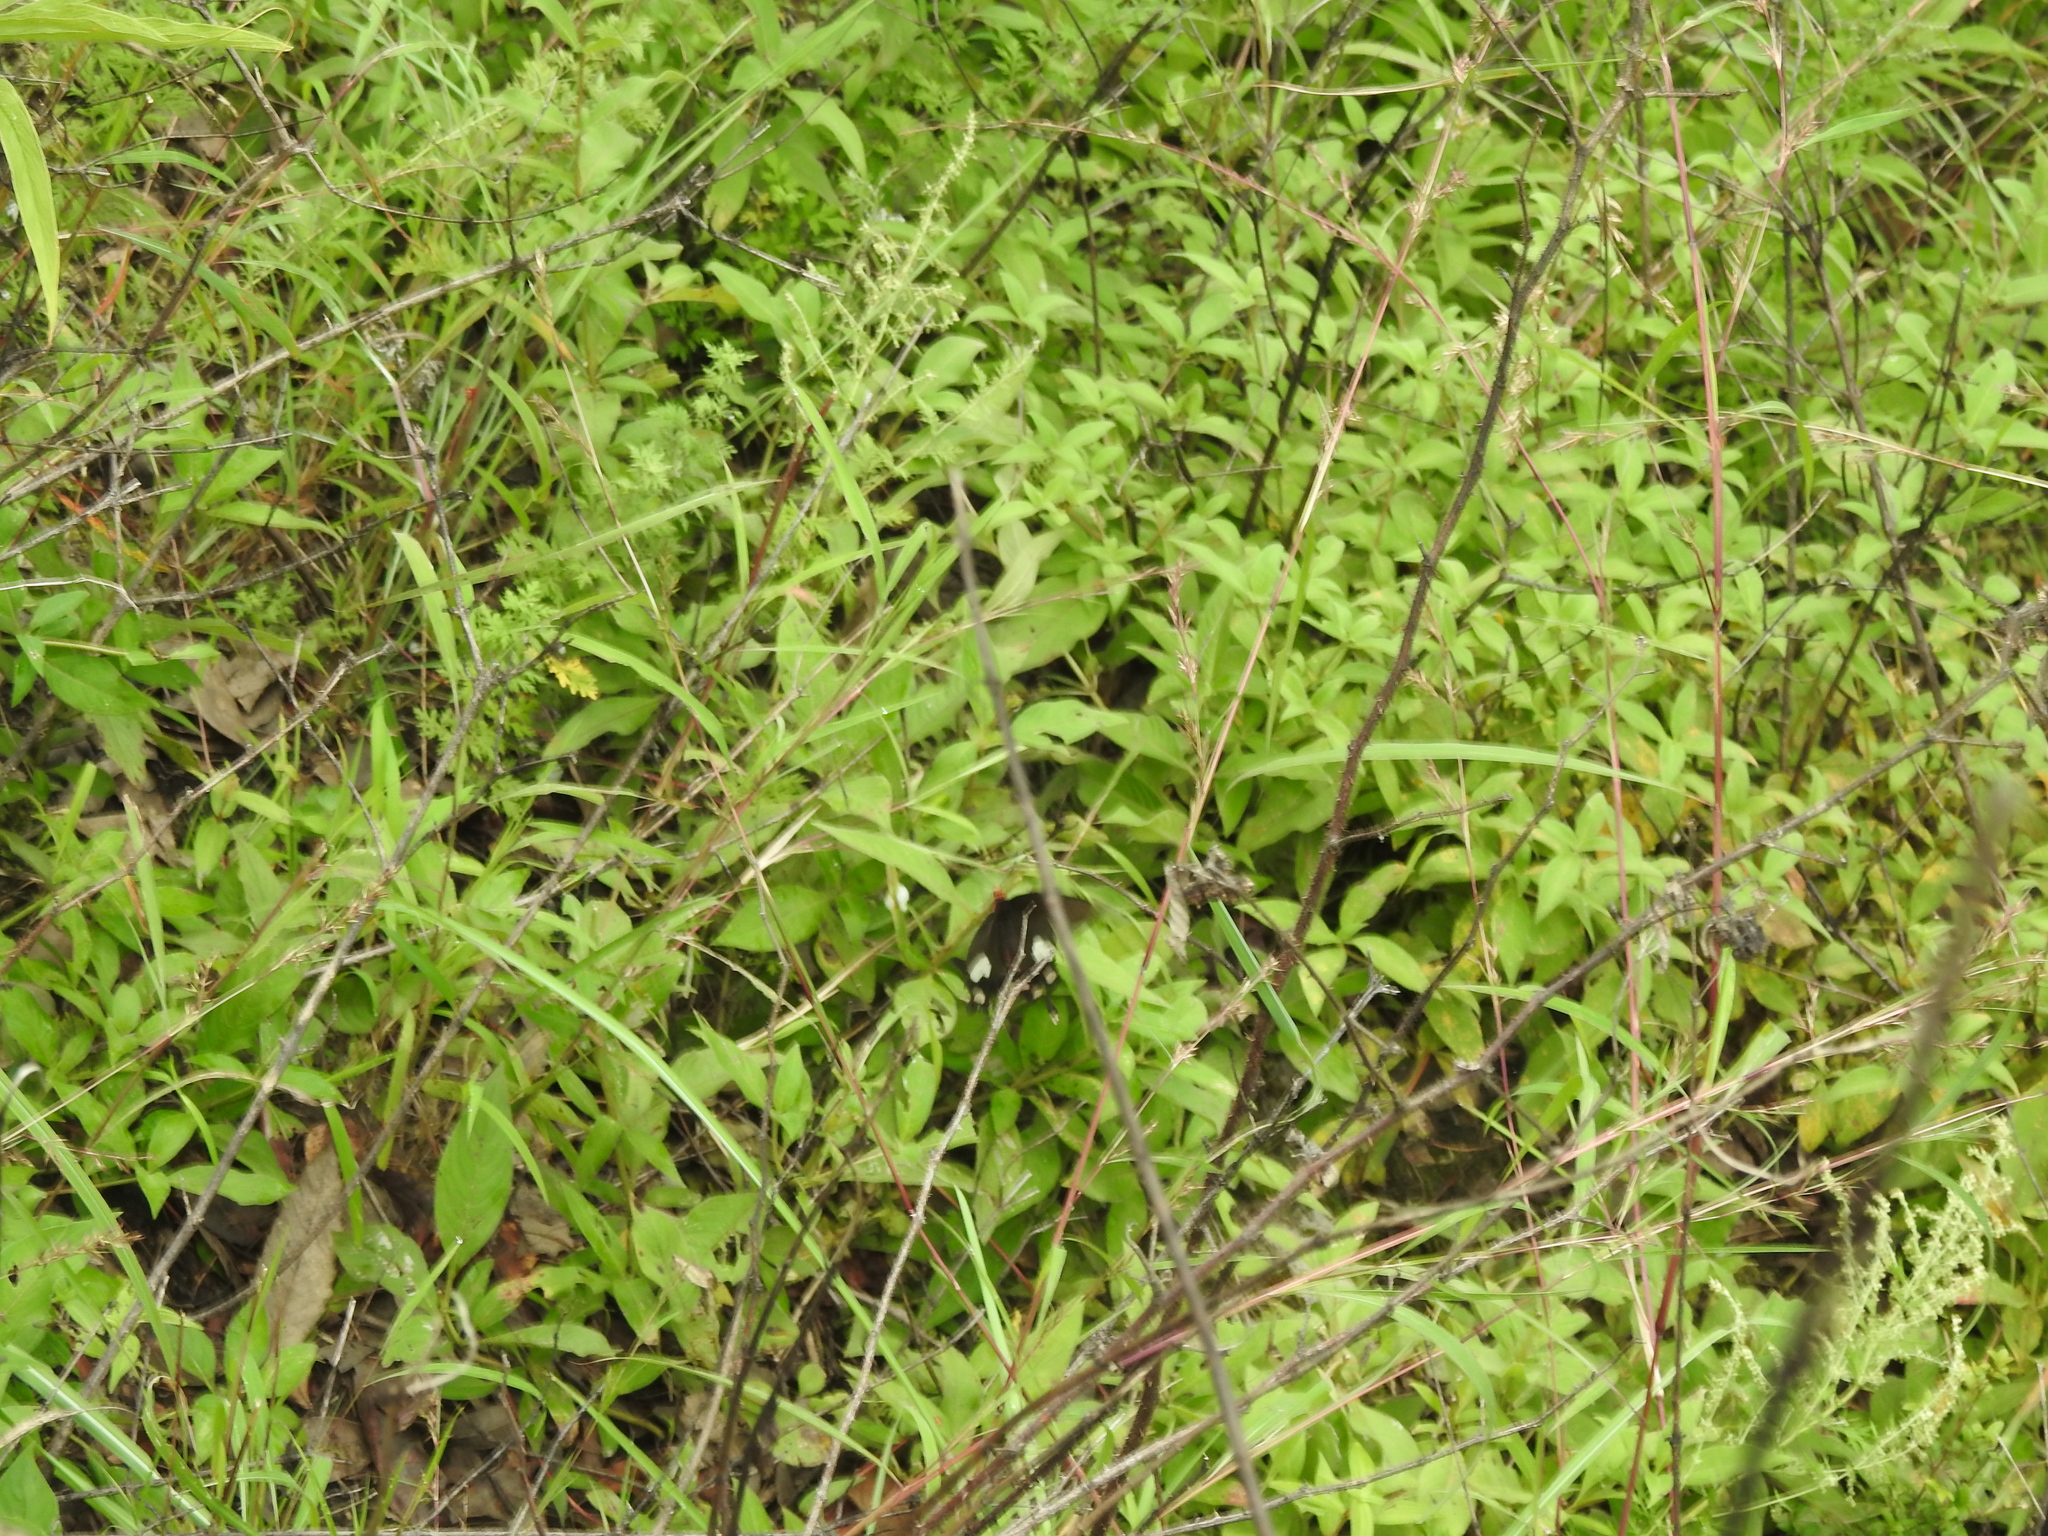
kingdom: Animalia
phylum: Arthropoda
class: Insecta
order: Lepidoptera
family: Papilionidae
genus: Byasa
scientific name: Byasa polyeuctes
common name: Common windmill
